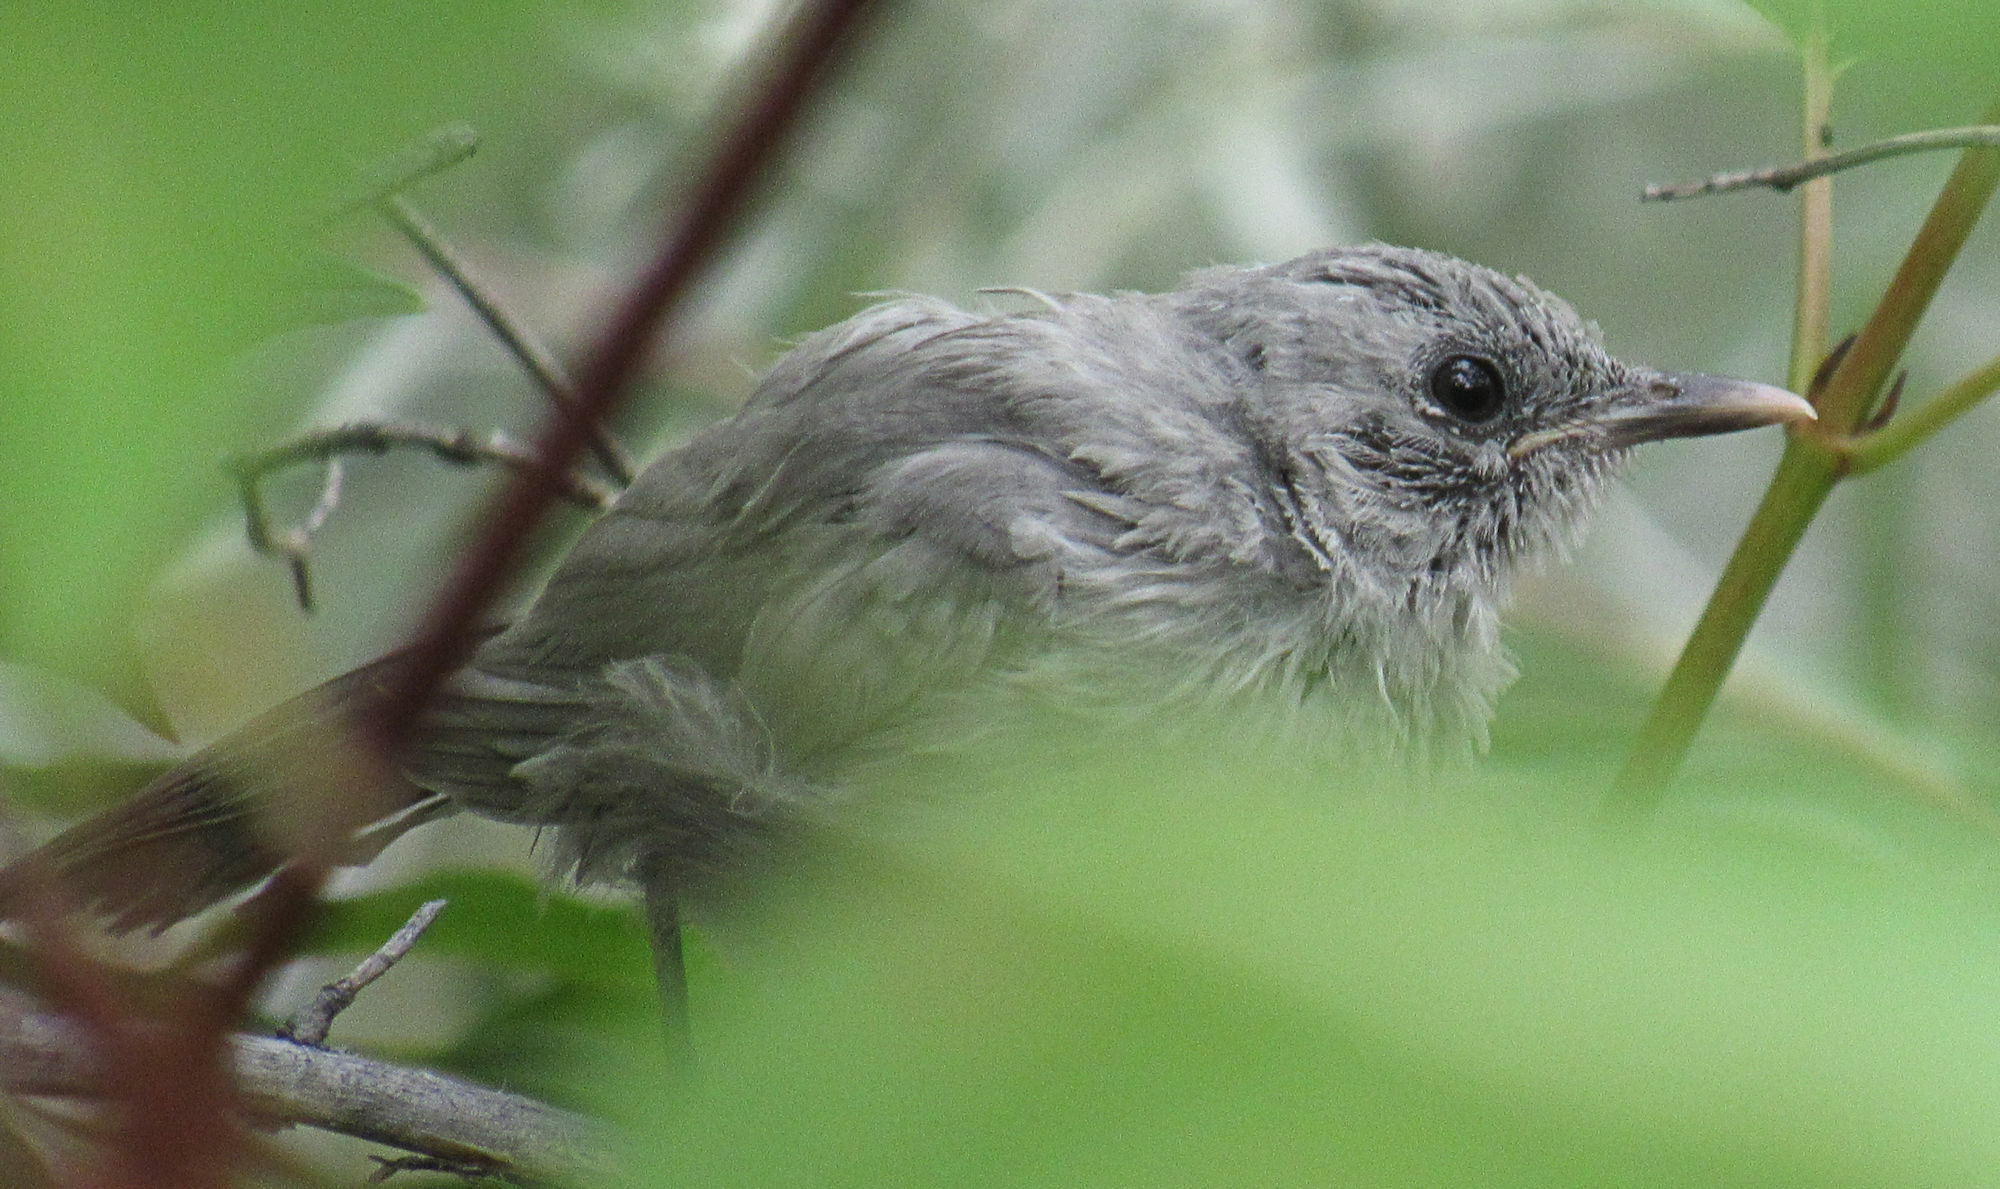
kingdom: Animalia
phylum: Chordata
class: Aves
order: Passeriformes
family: Mimidae
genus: Dumetella
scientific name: Dumetella carolinensis
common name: Gray catbird
